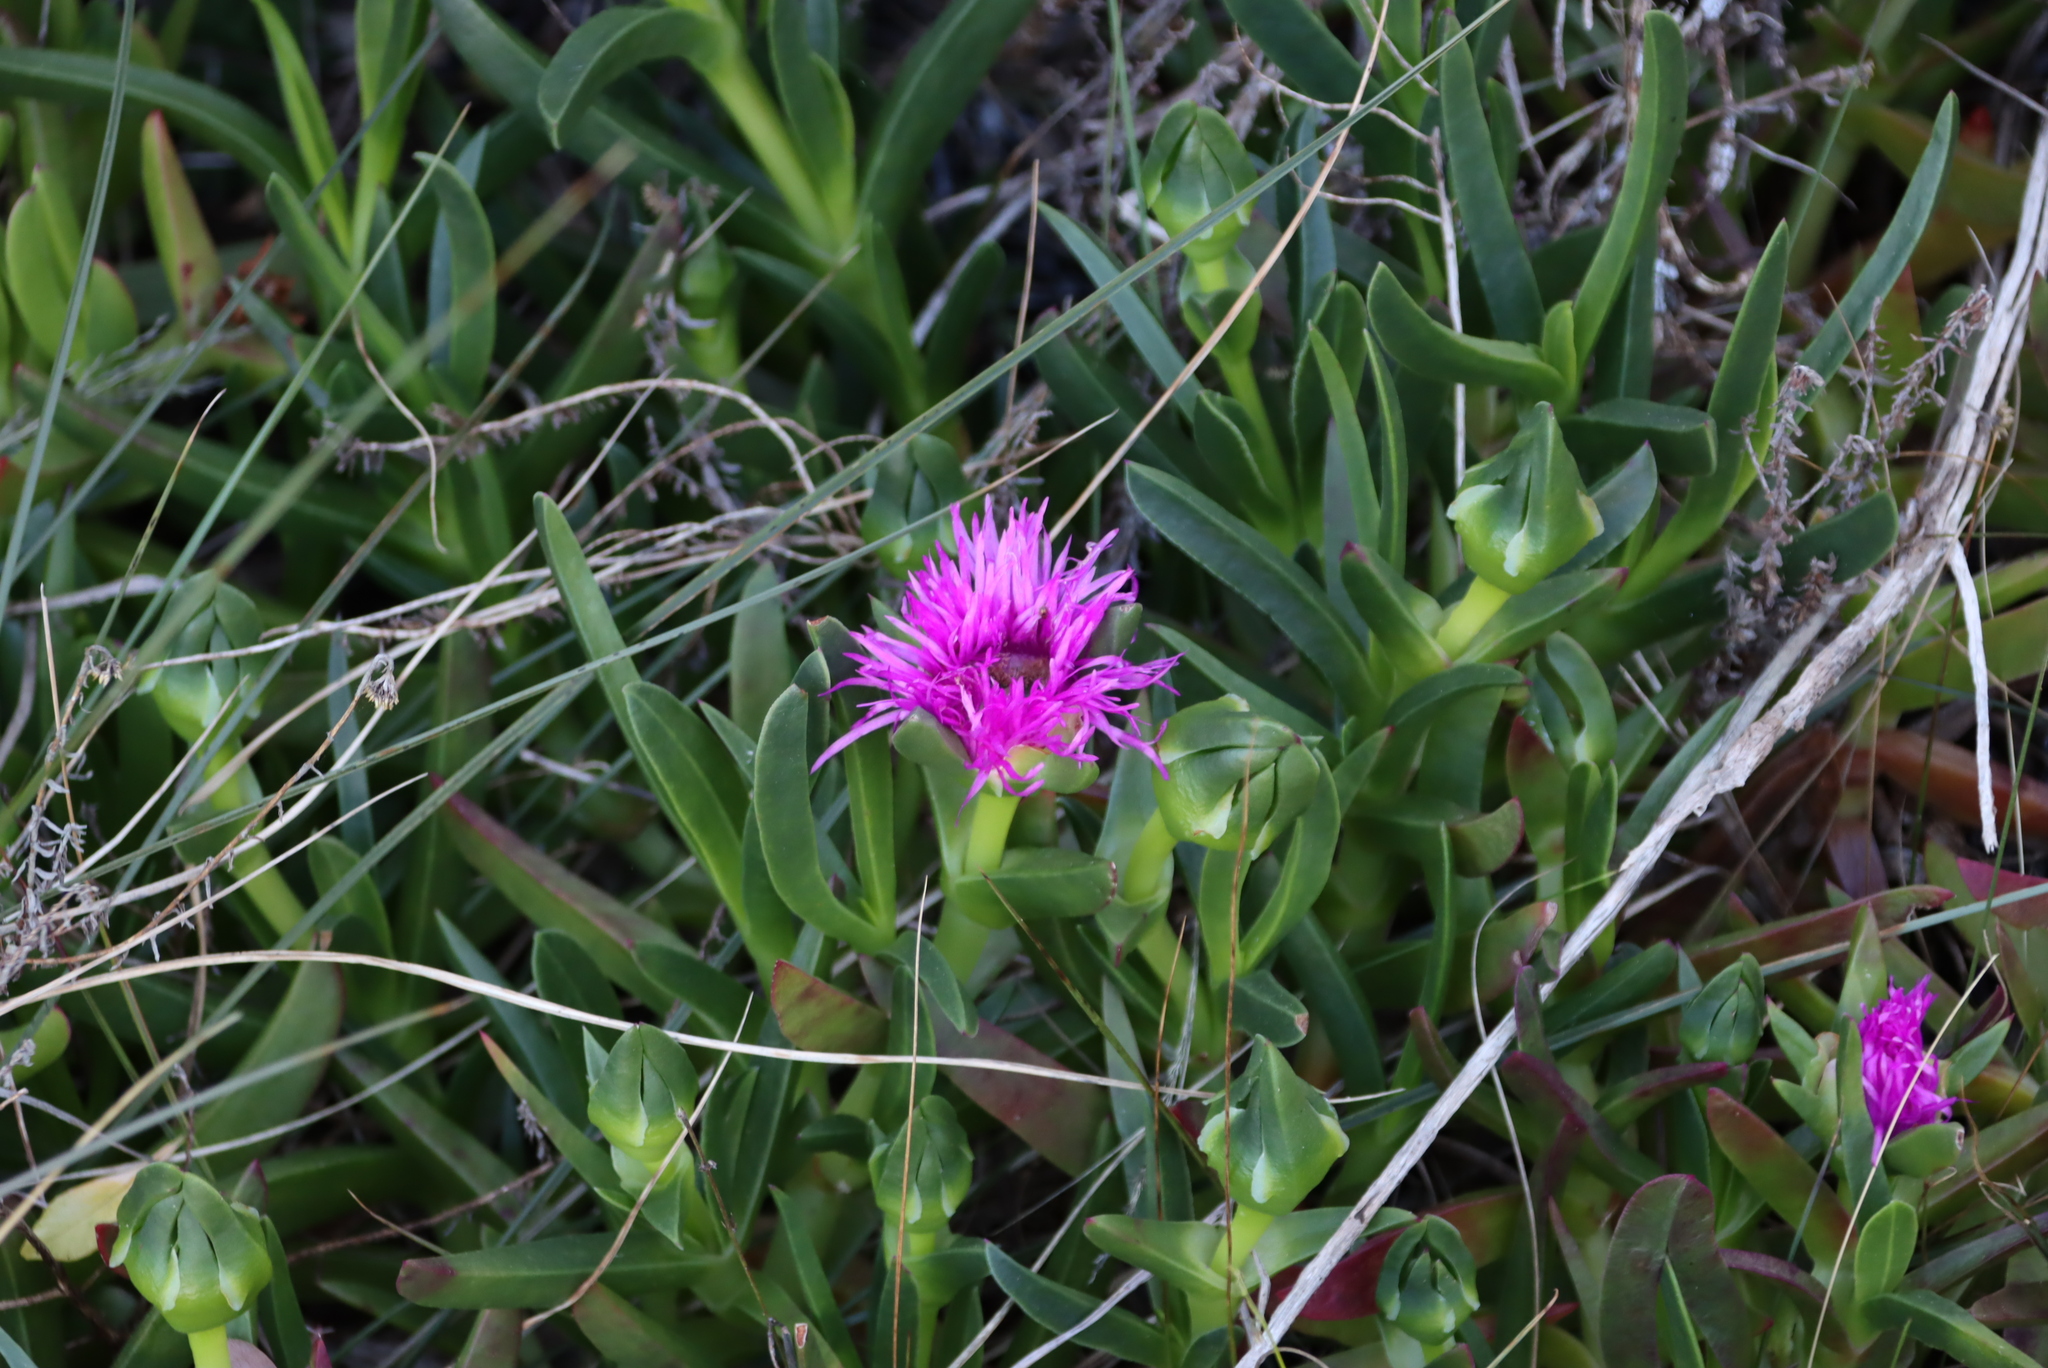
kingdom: Plantae
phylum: Tracheophyta
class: Magnoliopsida
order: Caryophyllales
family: Aizoaceae
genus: Carpobrotus
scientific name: Carpobrotus deliciosus
